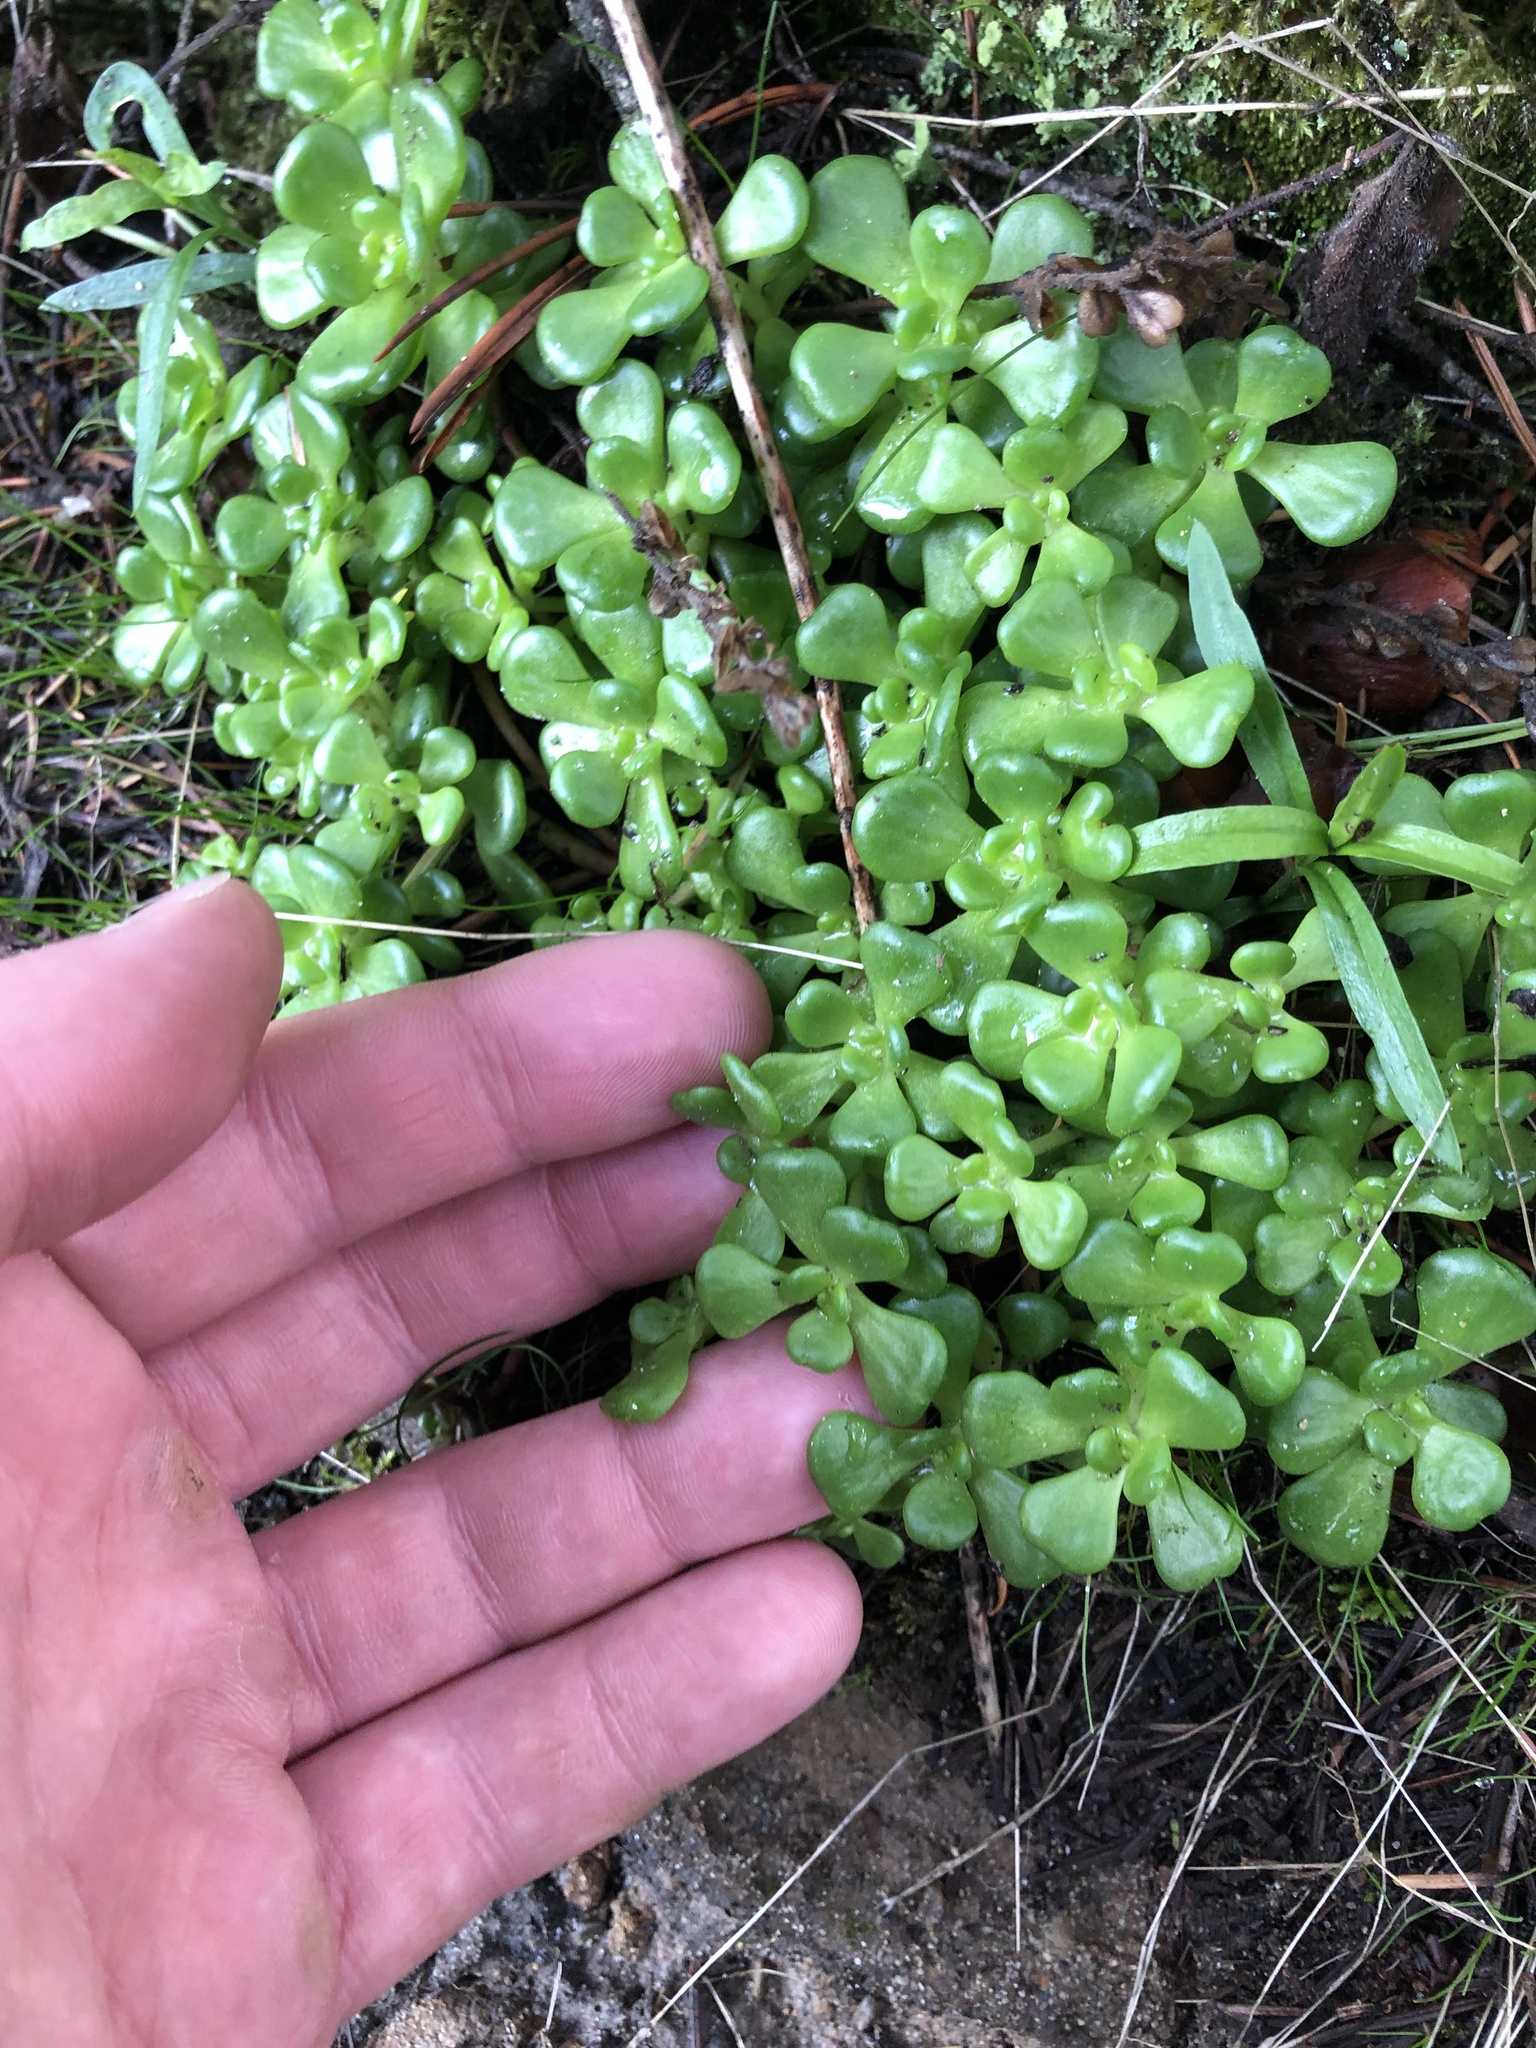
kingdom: Plantae
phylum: Tracheophyta
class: Magnoliopsida
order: Saxifragales
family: Crassulaceae
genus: Sedum
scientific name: Sedum oreganum
